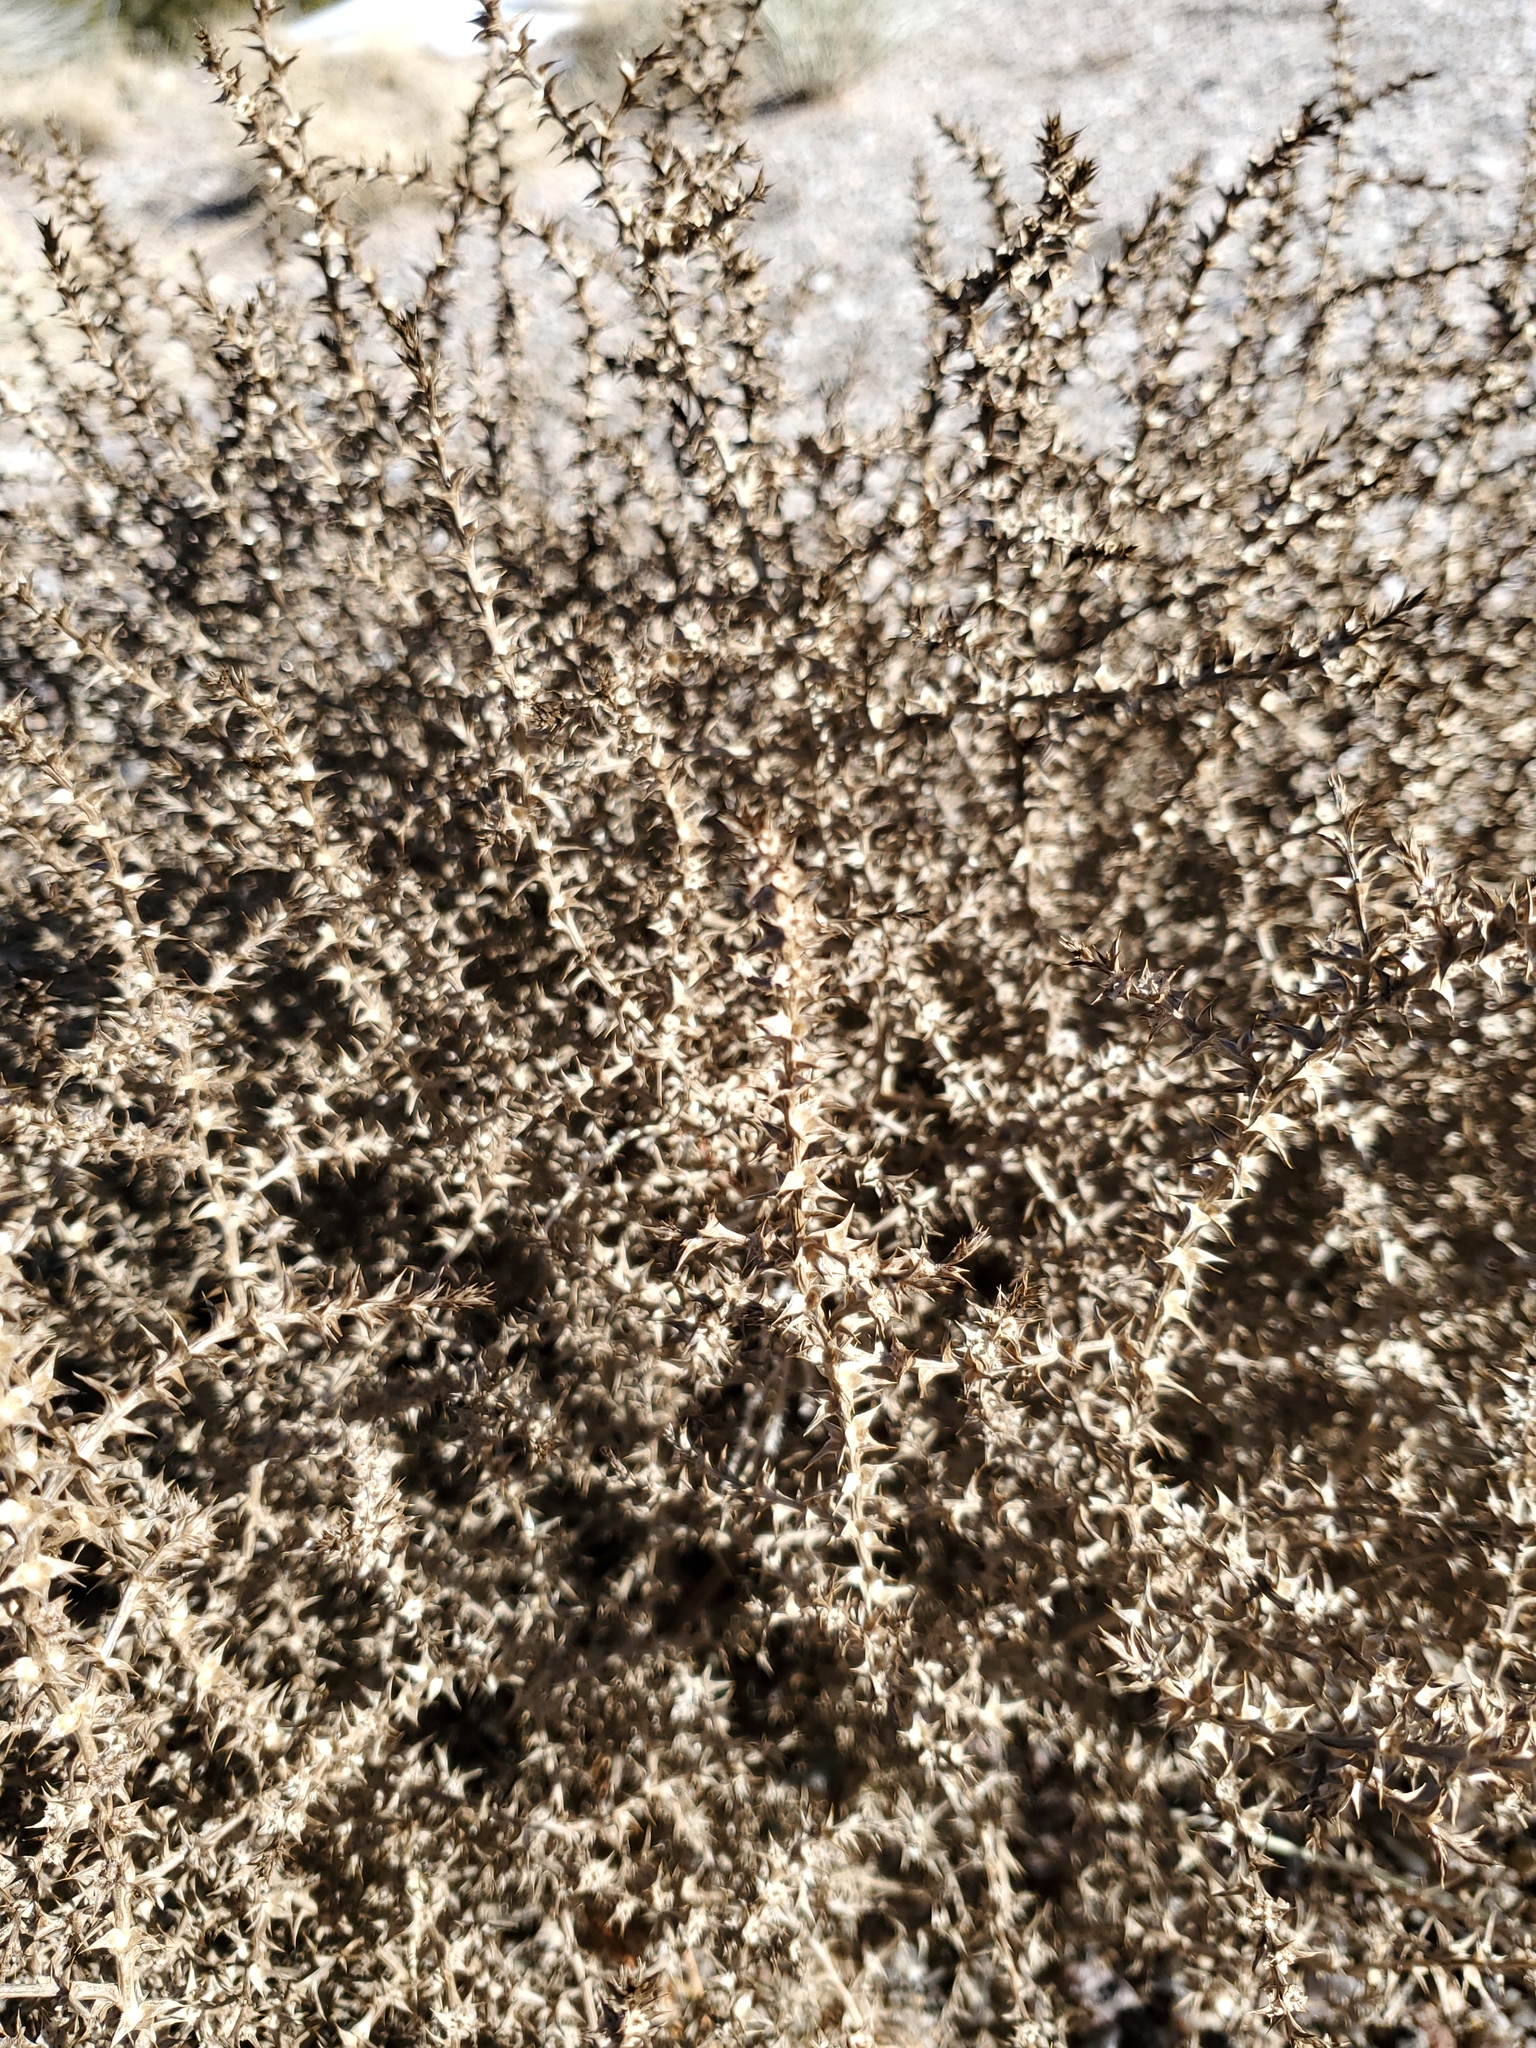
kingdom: Plantae
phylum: Tracheophyta
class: Magnoliopsida
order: Caryophyllales
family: Amaranthaceae
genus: Salsola
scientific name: Salsola tragus
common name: Prickly russian thistle
